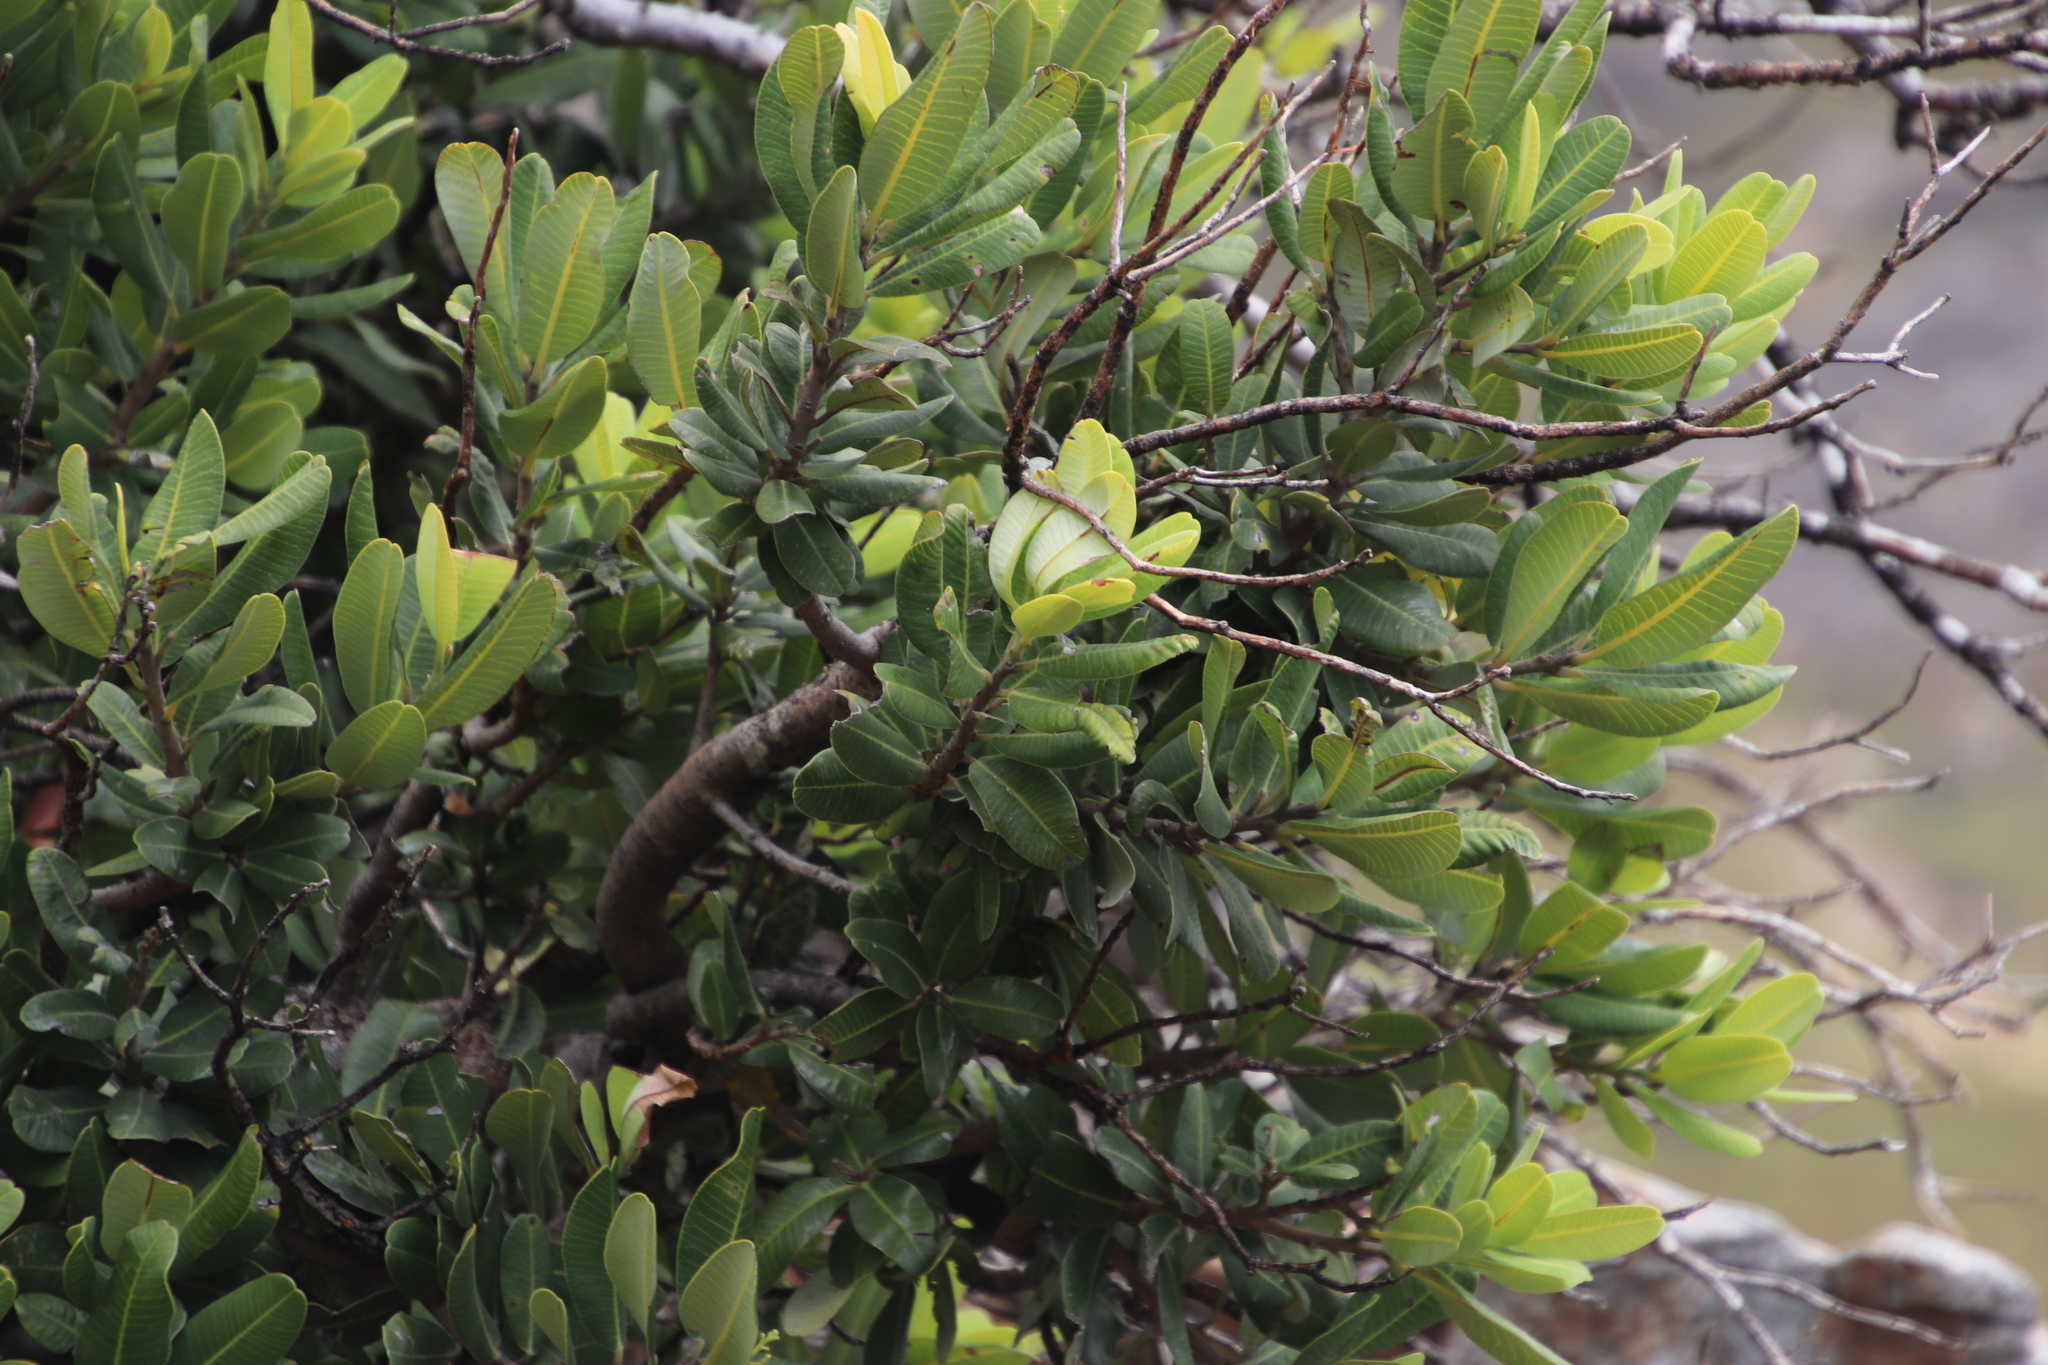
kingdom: Plantae
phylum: Tracheophyta
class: Magnoliopsida
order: Sapindales
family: Anacardiaceae
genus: Heeria
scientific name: Heeria argentea
